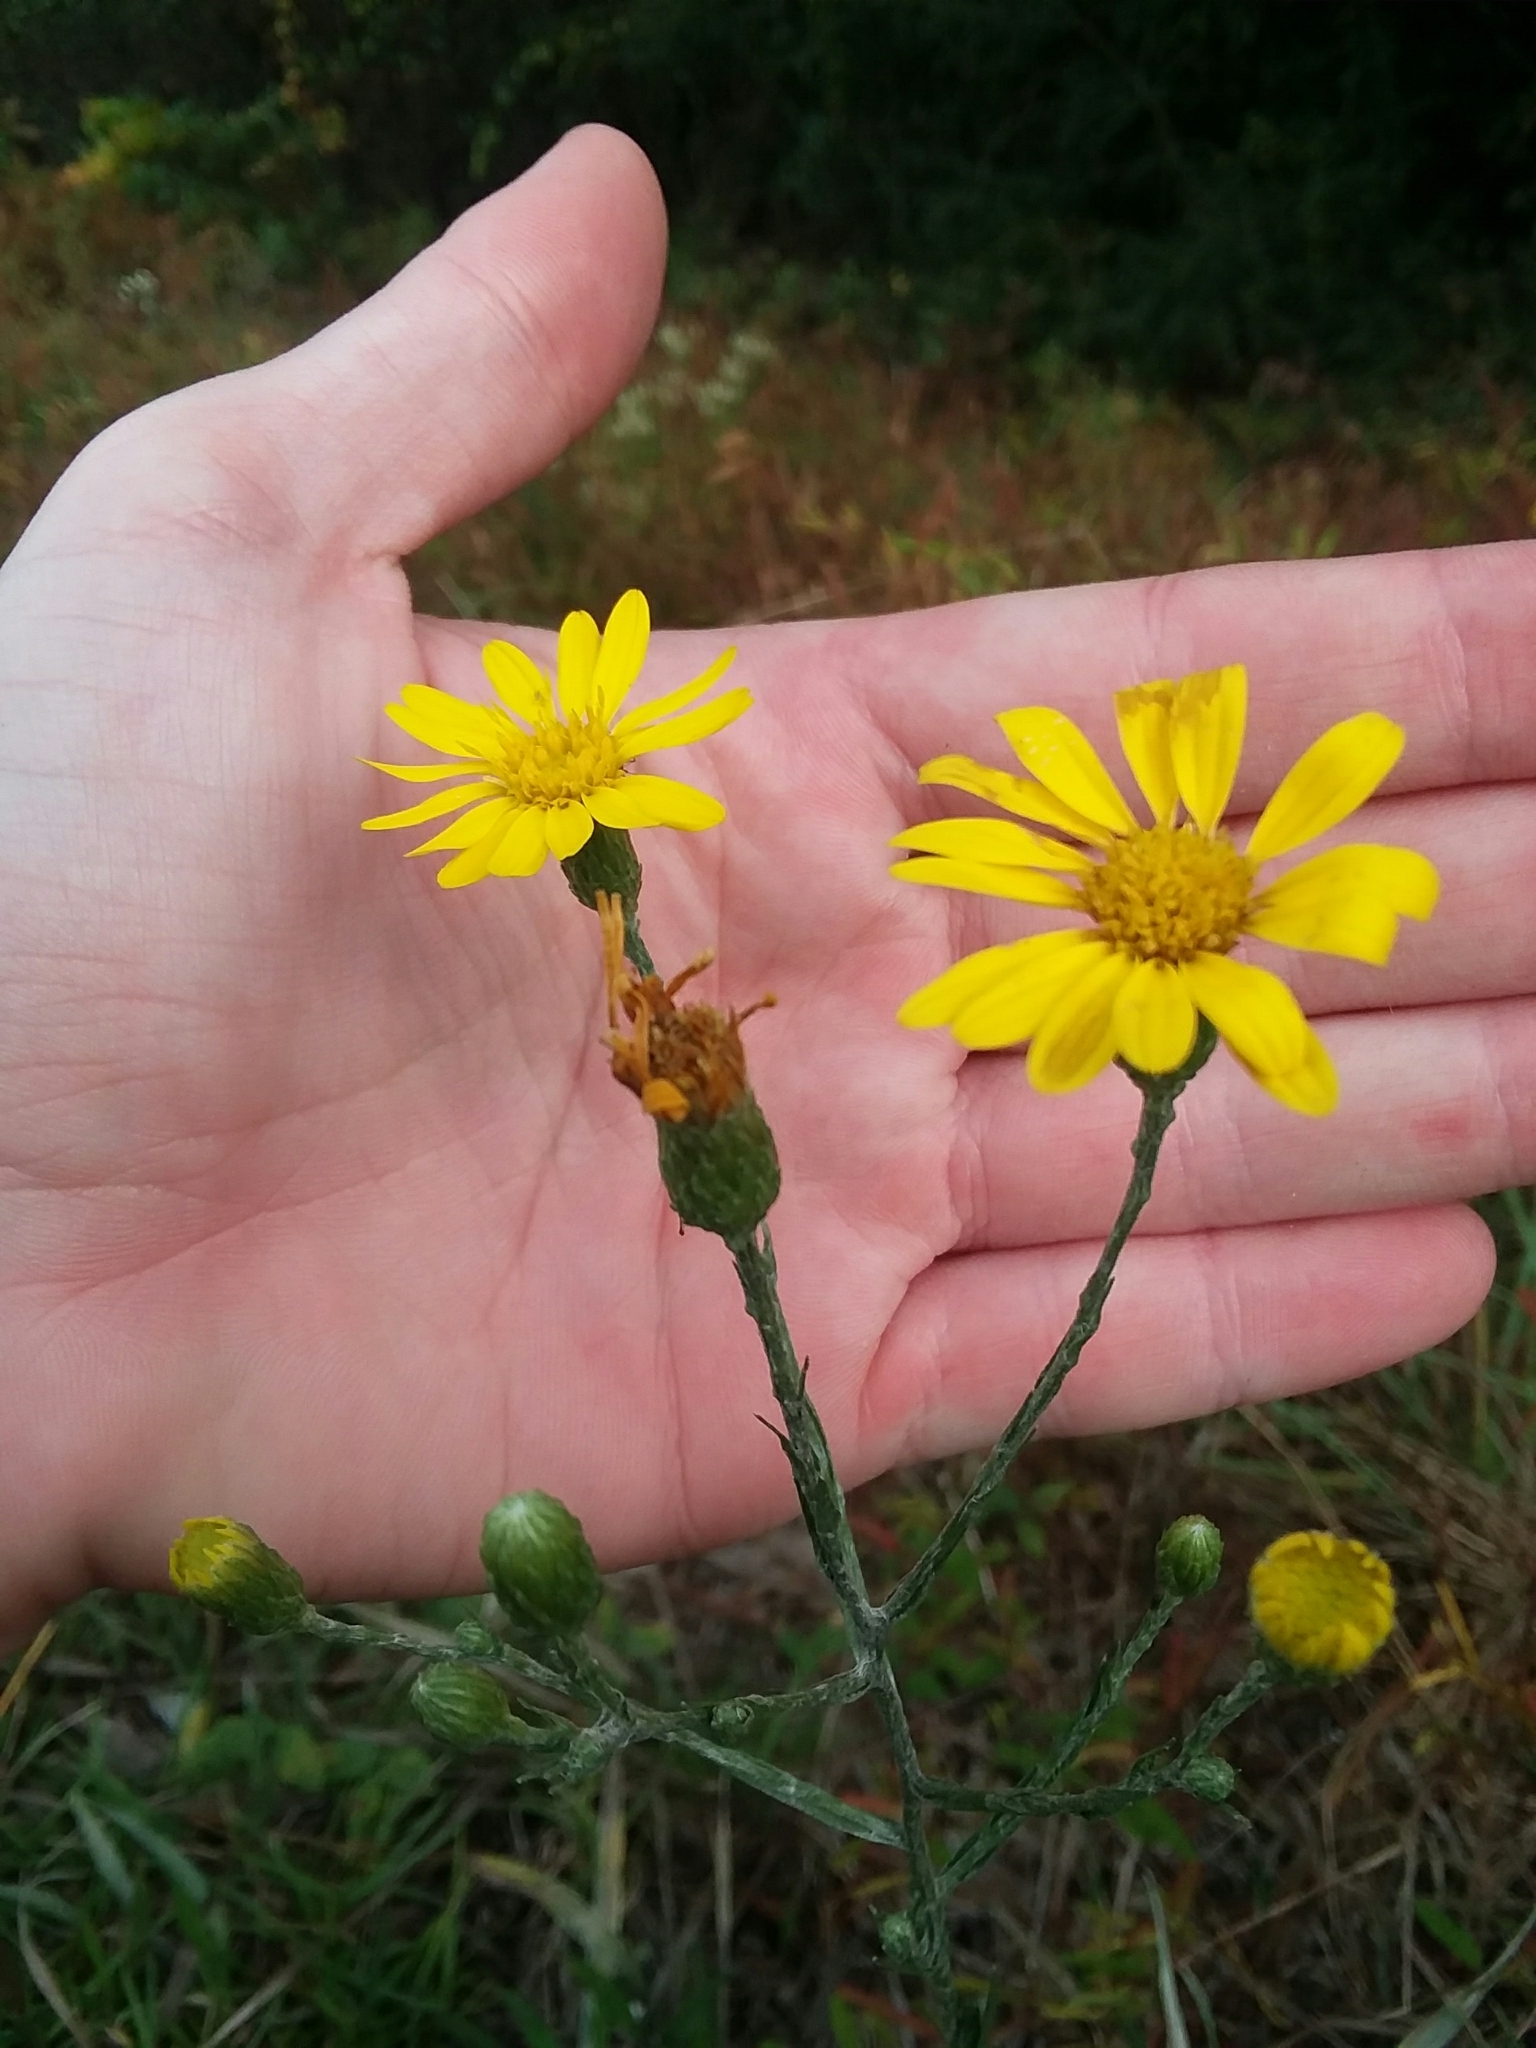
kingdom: Plantae
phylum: Tracheophyta
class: Magnoliopsida
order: Asterales
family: Asteraceae
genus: Pityopsis
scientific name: Pityopsis graminifolia
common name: Grass-leaf golden-aster
